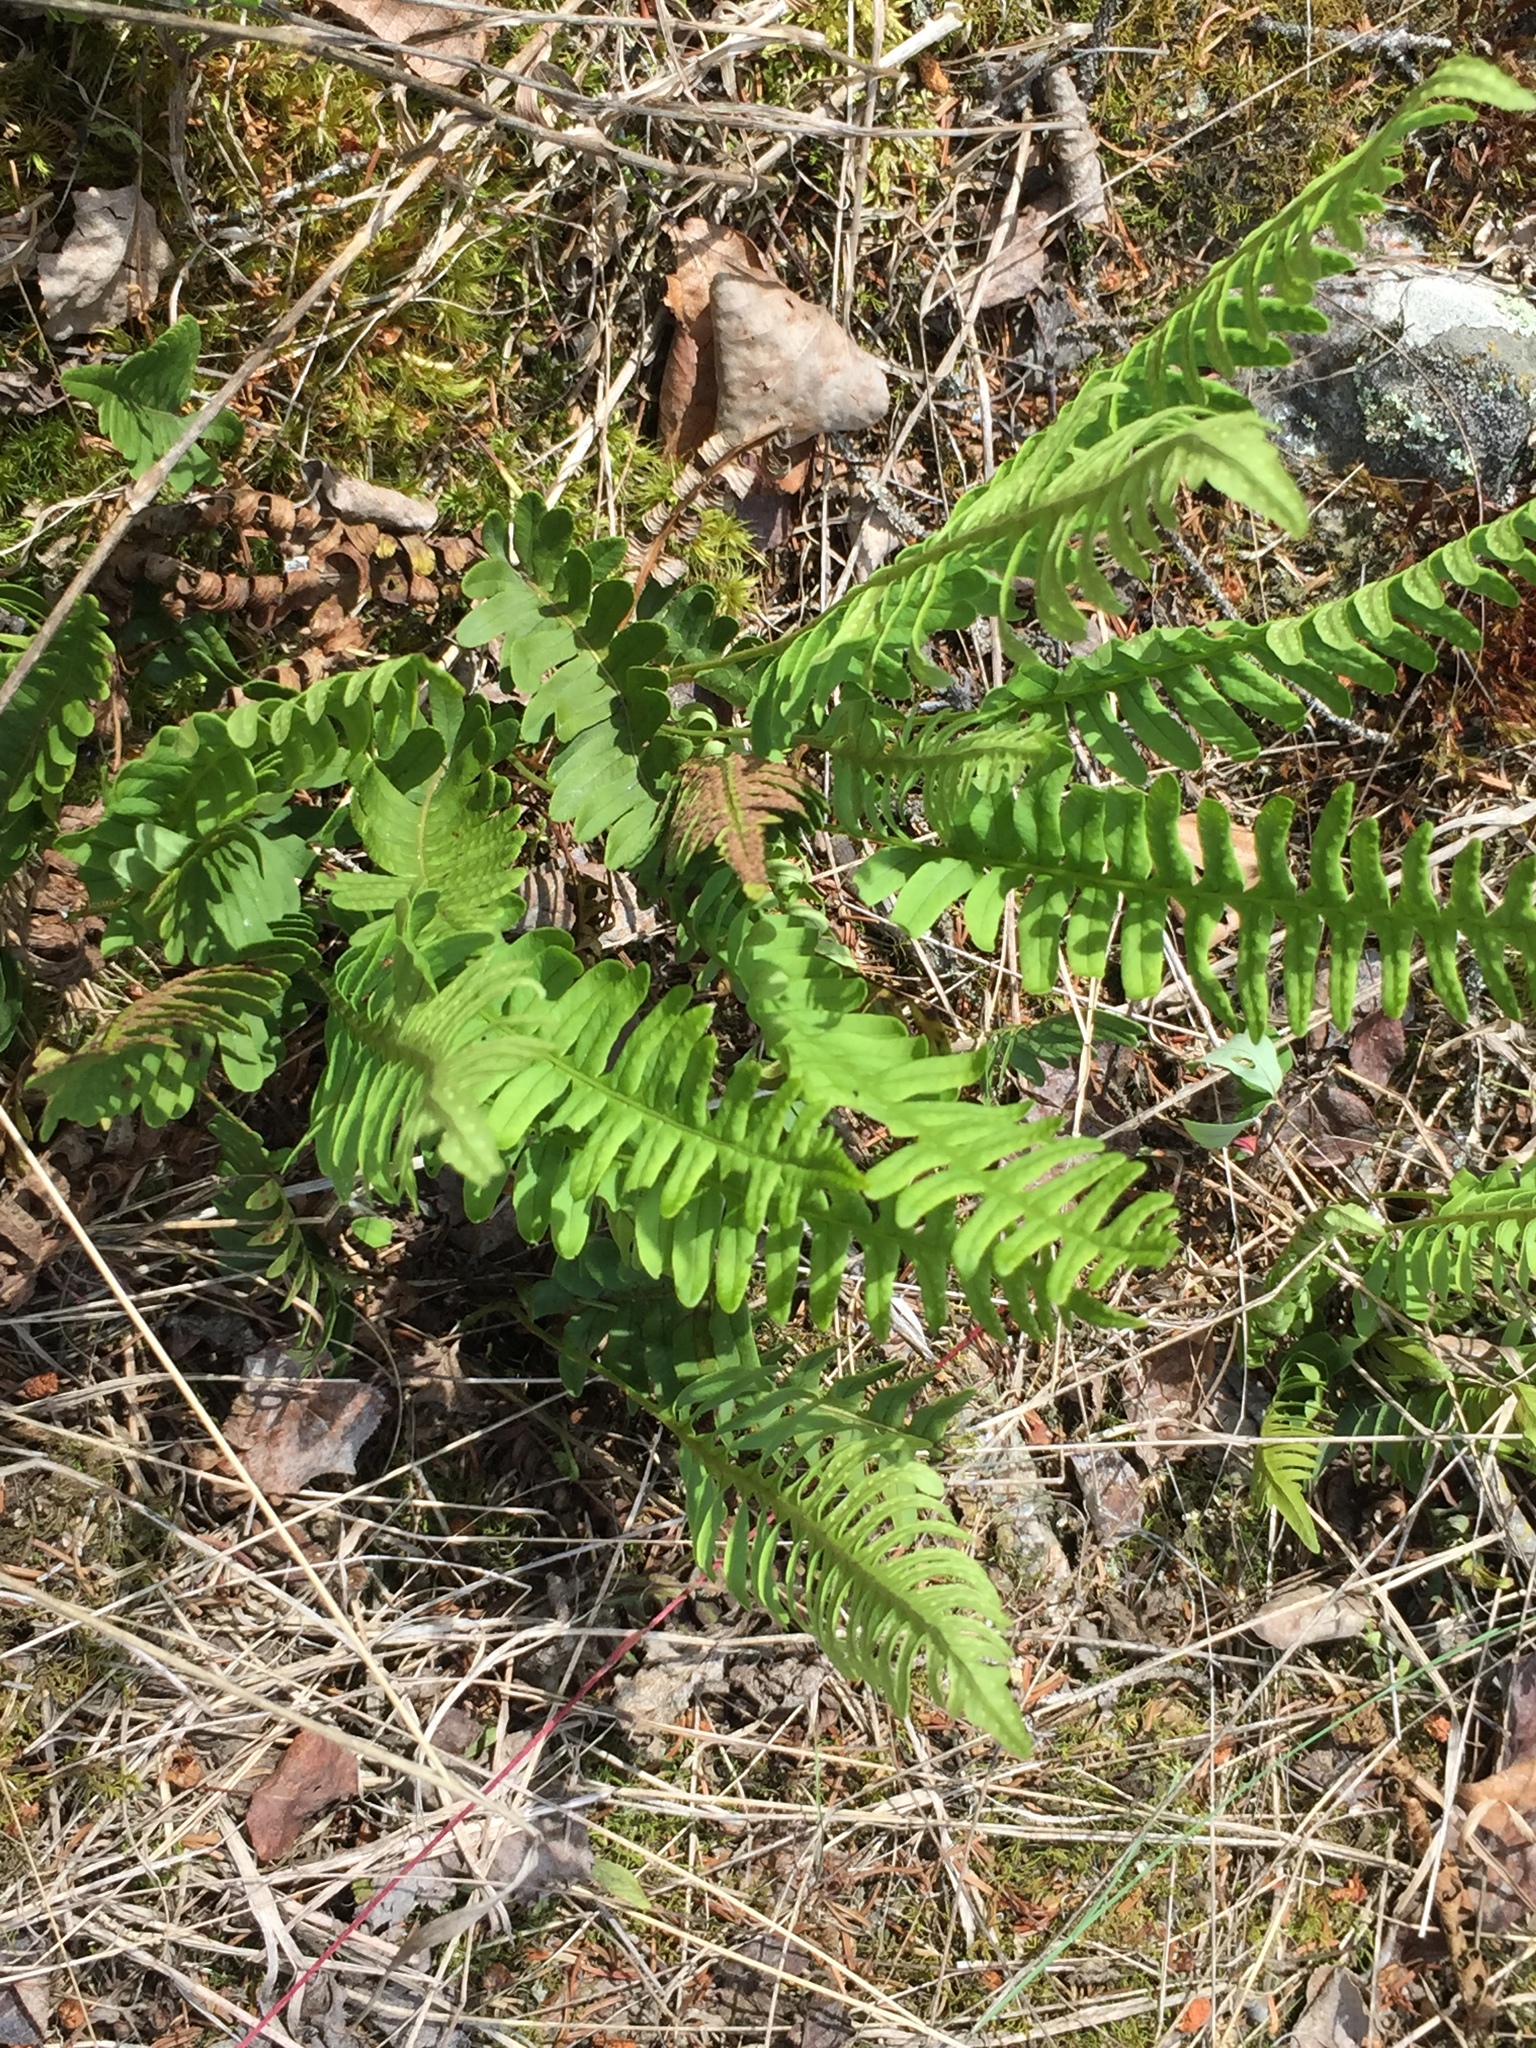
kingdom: Plantae
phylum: Tracheophyta
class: Polypodiopsida
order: Polypodiales
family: Polypodiaceae
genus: Polypodium
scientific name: Polypodium virginianum
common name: American wall fern
